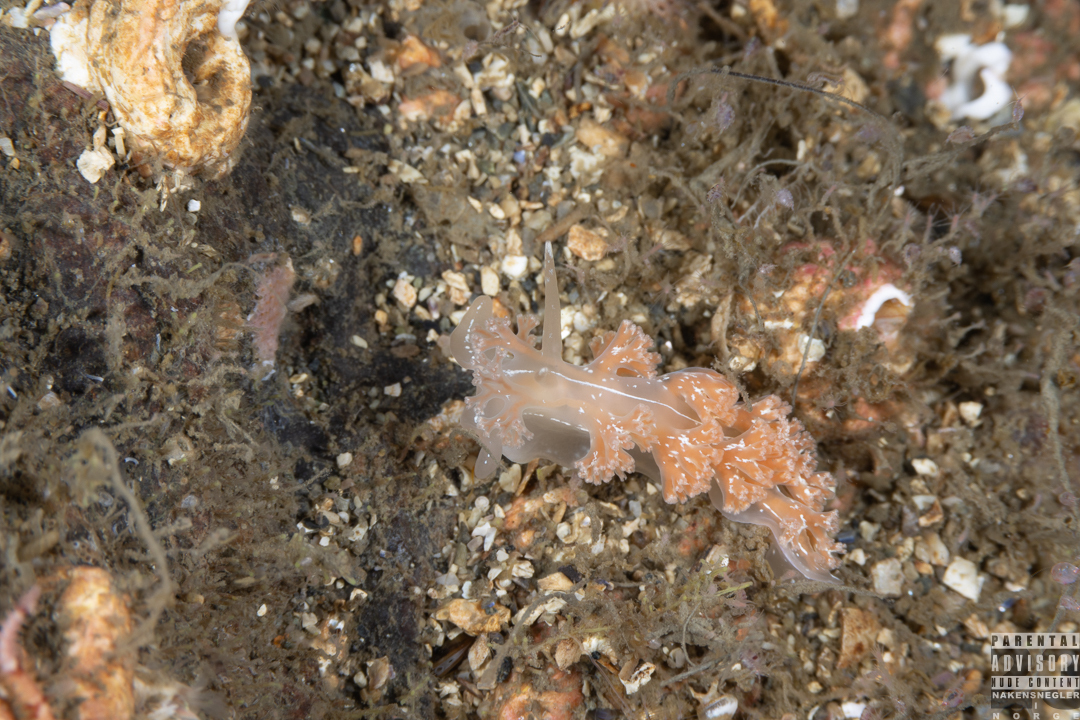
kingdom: Animalia
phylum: Mollusca
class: Gastropoda
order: Nudibranchia
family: Heroidae
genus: Hero
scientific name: Hero formosa
